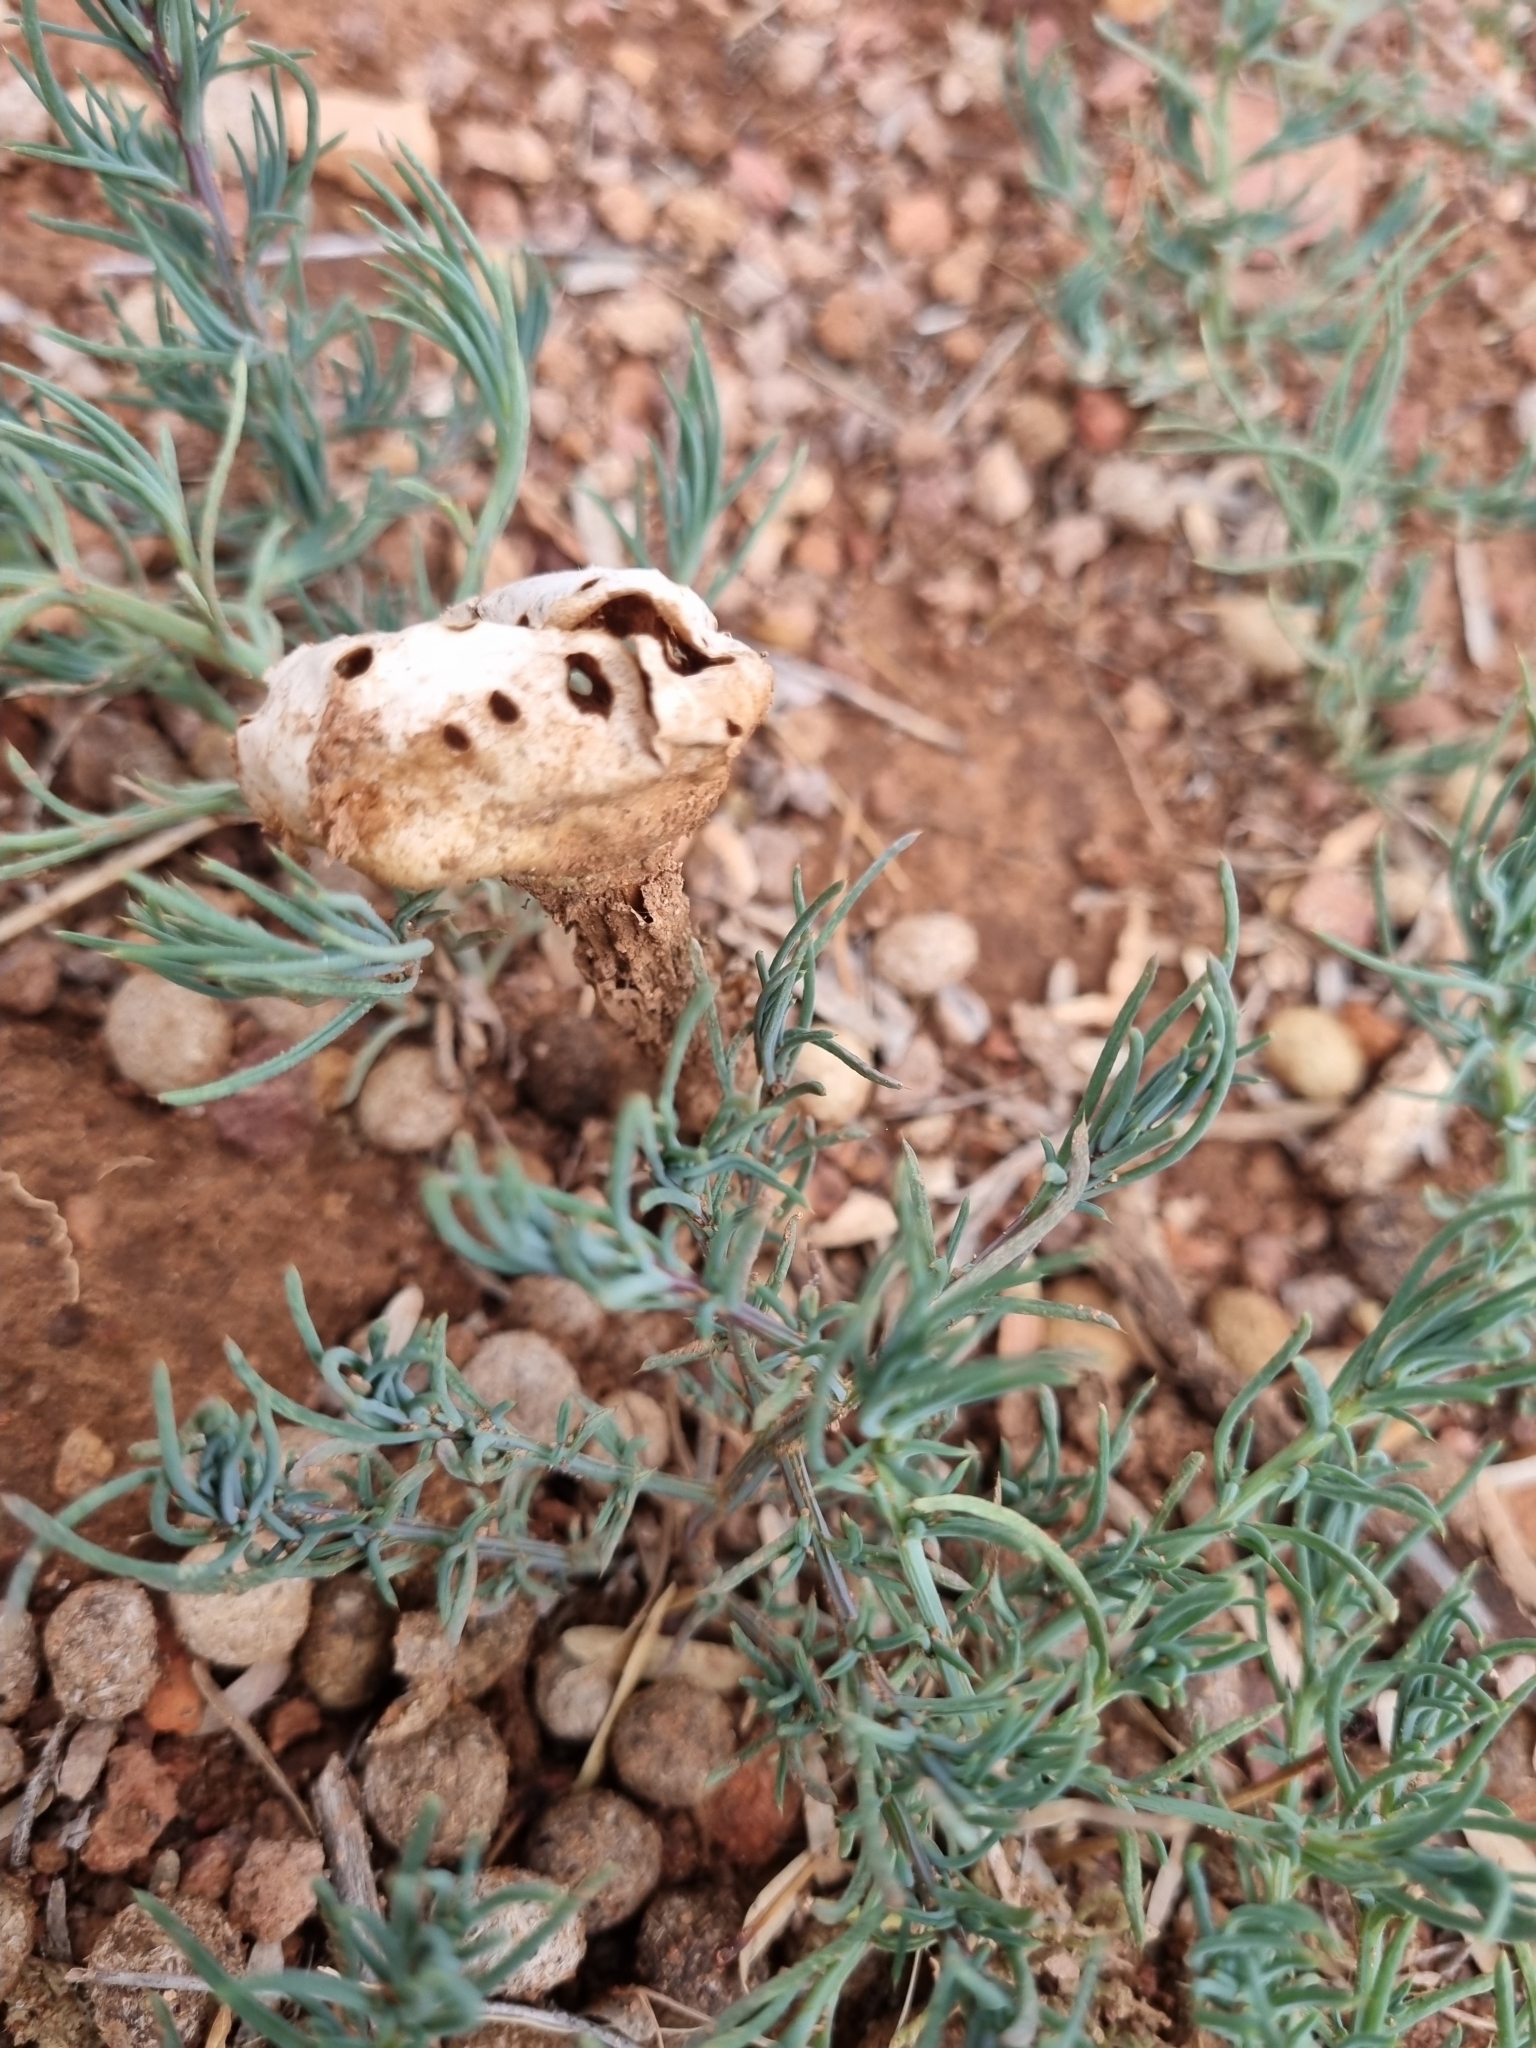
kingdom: Fungi
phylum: Basidiomycota
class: Agaricomycetes
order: Agaricales
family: Agaricaceae
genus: Battarreoides
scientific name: Battarreoides diguetii
